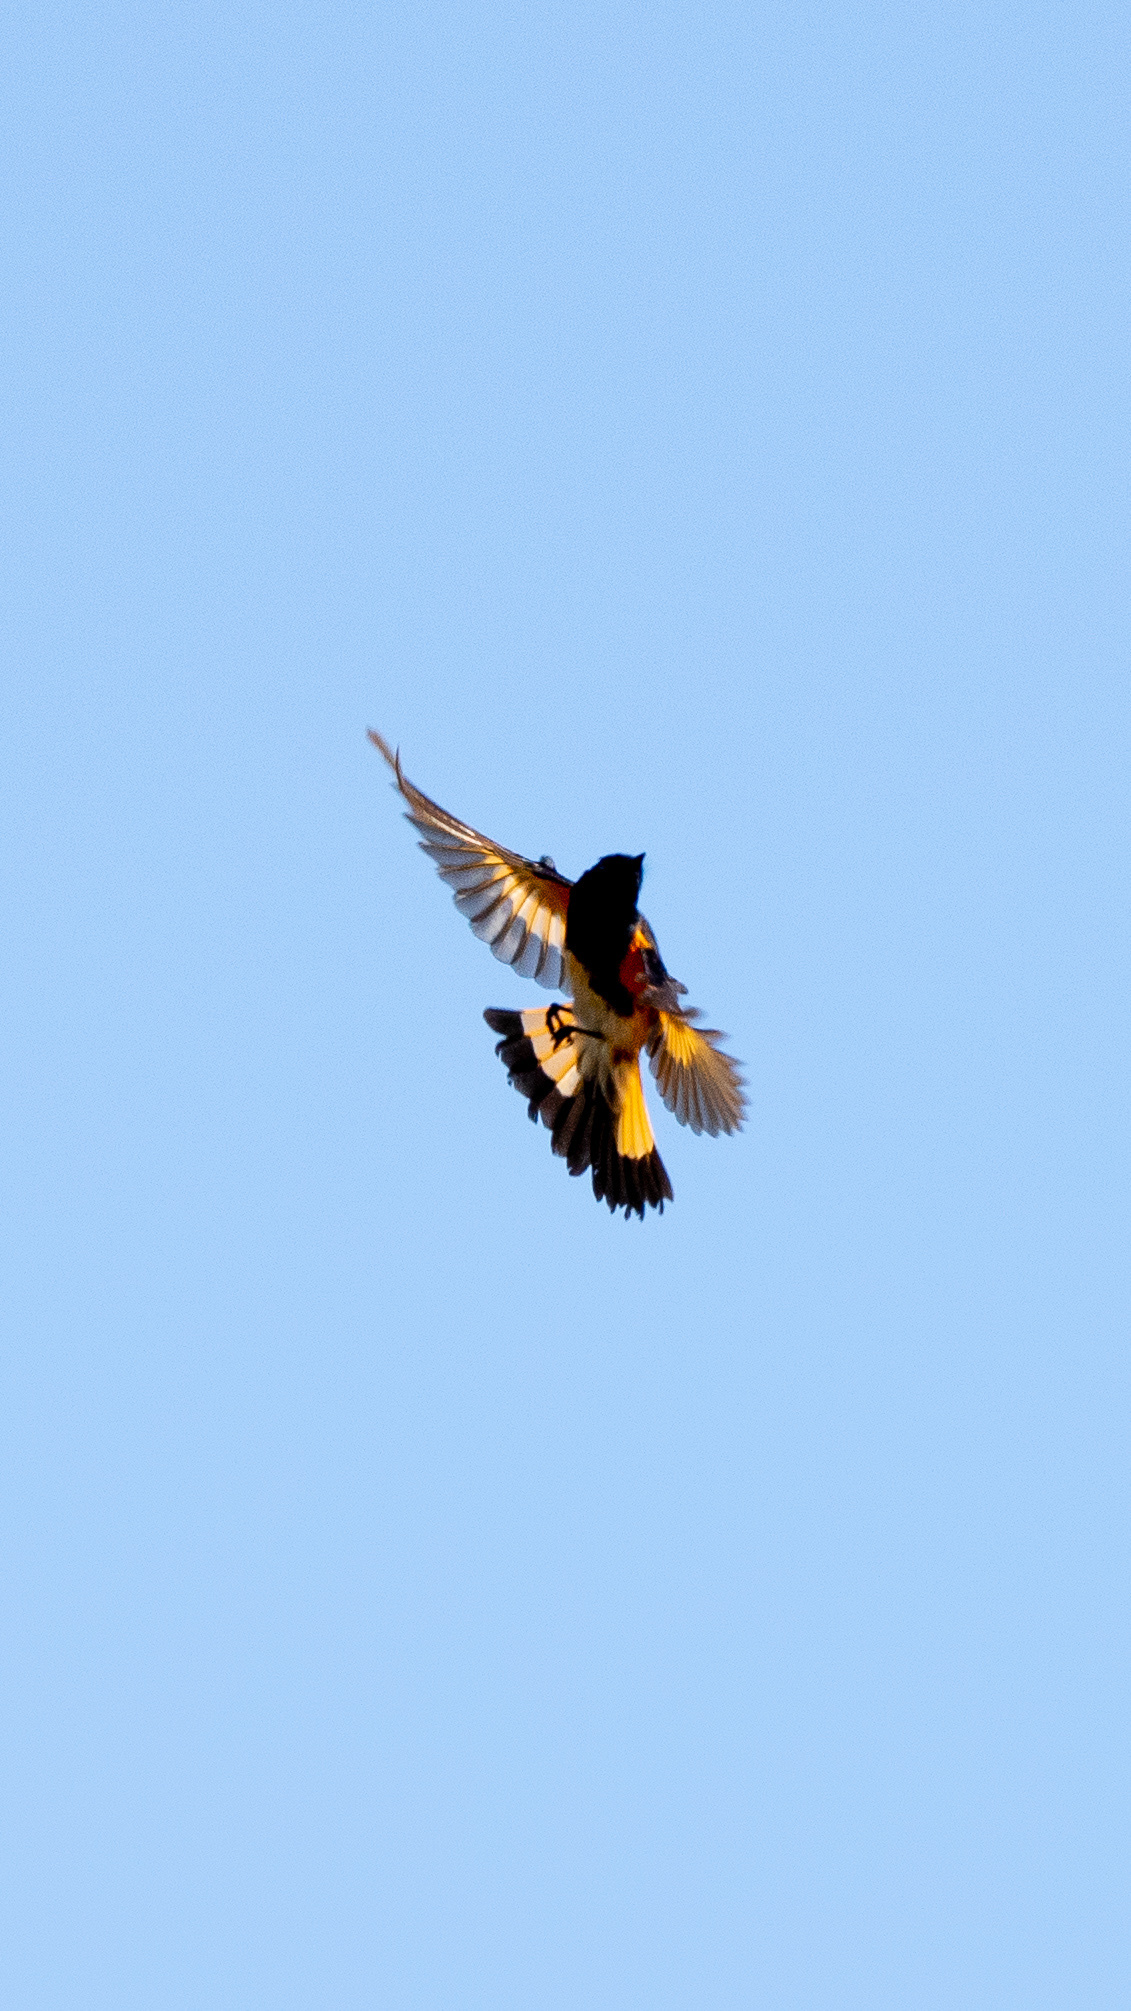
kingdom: Animalia
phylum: Chordata
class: Aves
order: Passeriformes
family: Parulidae
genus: Setophaga
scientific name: Setophaga ruticilla
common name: American redstart
